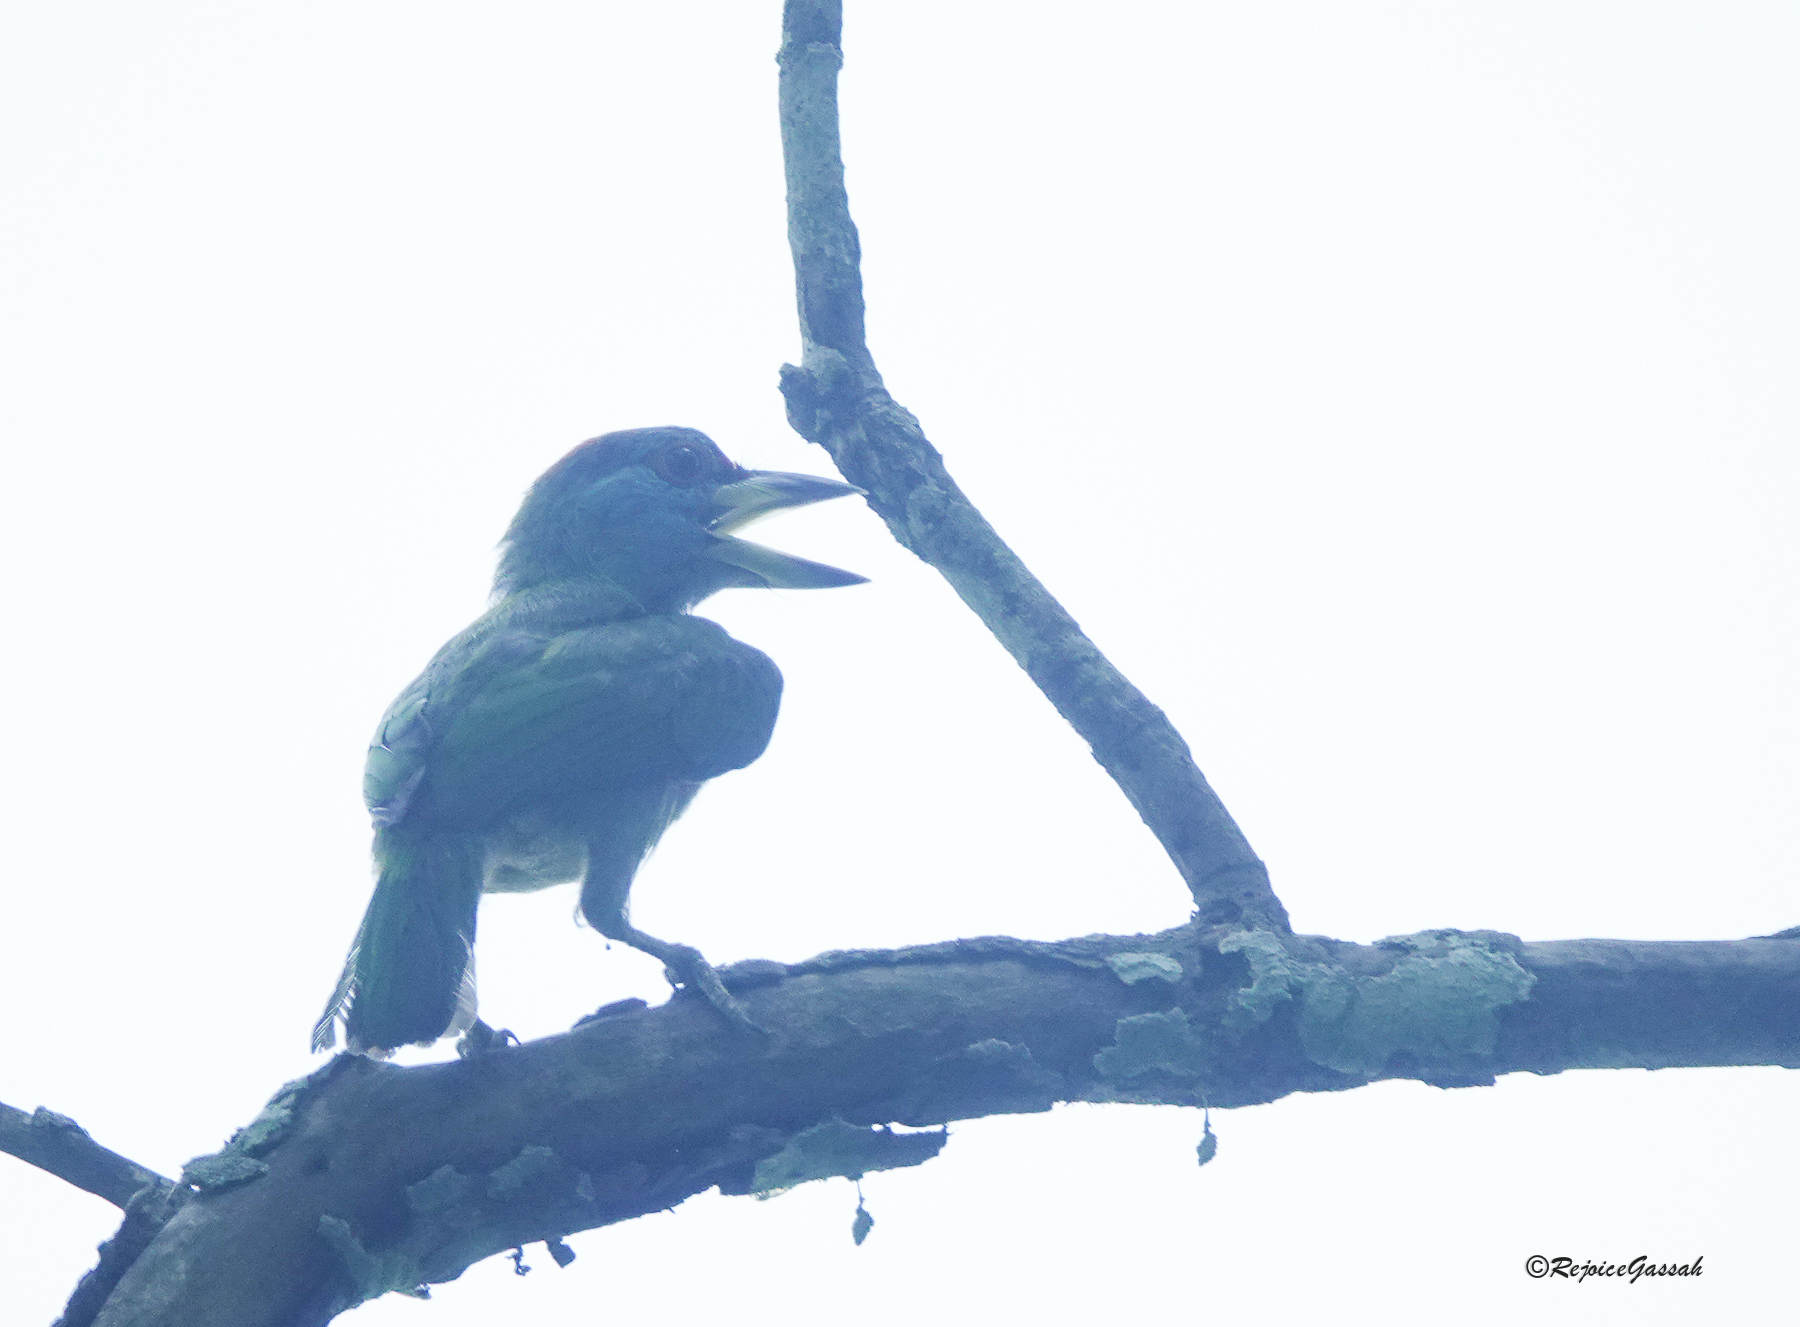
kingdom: Animalia
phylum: Chordata
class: Aves
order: Piciformes
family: Megalaimidae
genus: Psilopogon
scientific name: Psilopogon asiaticus
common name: Blue-throated barbet
